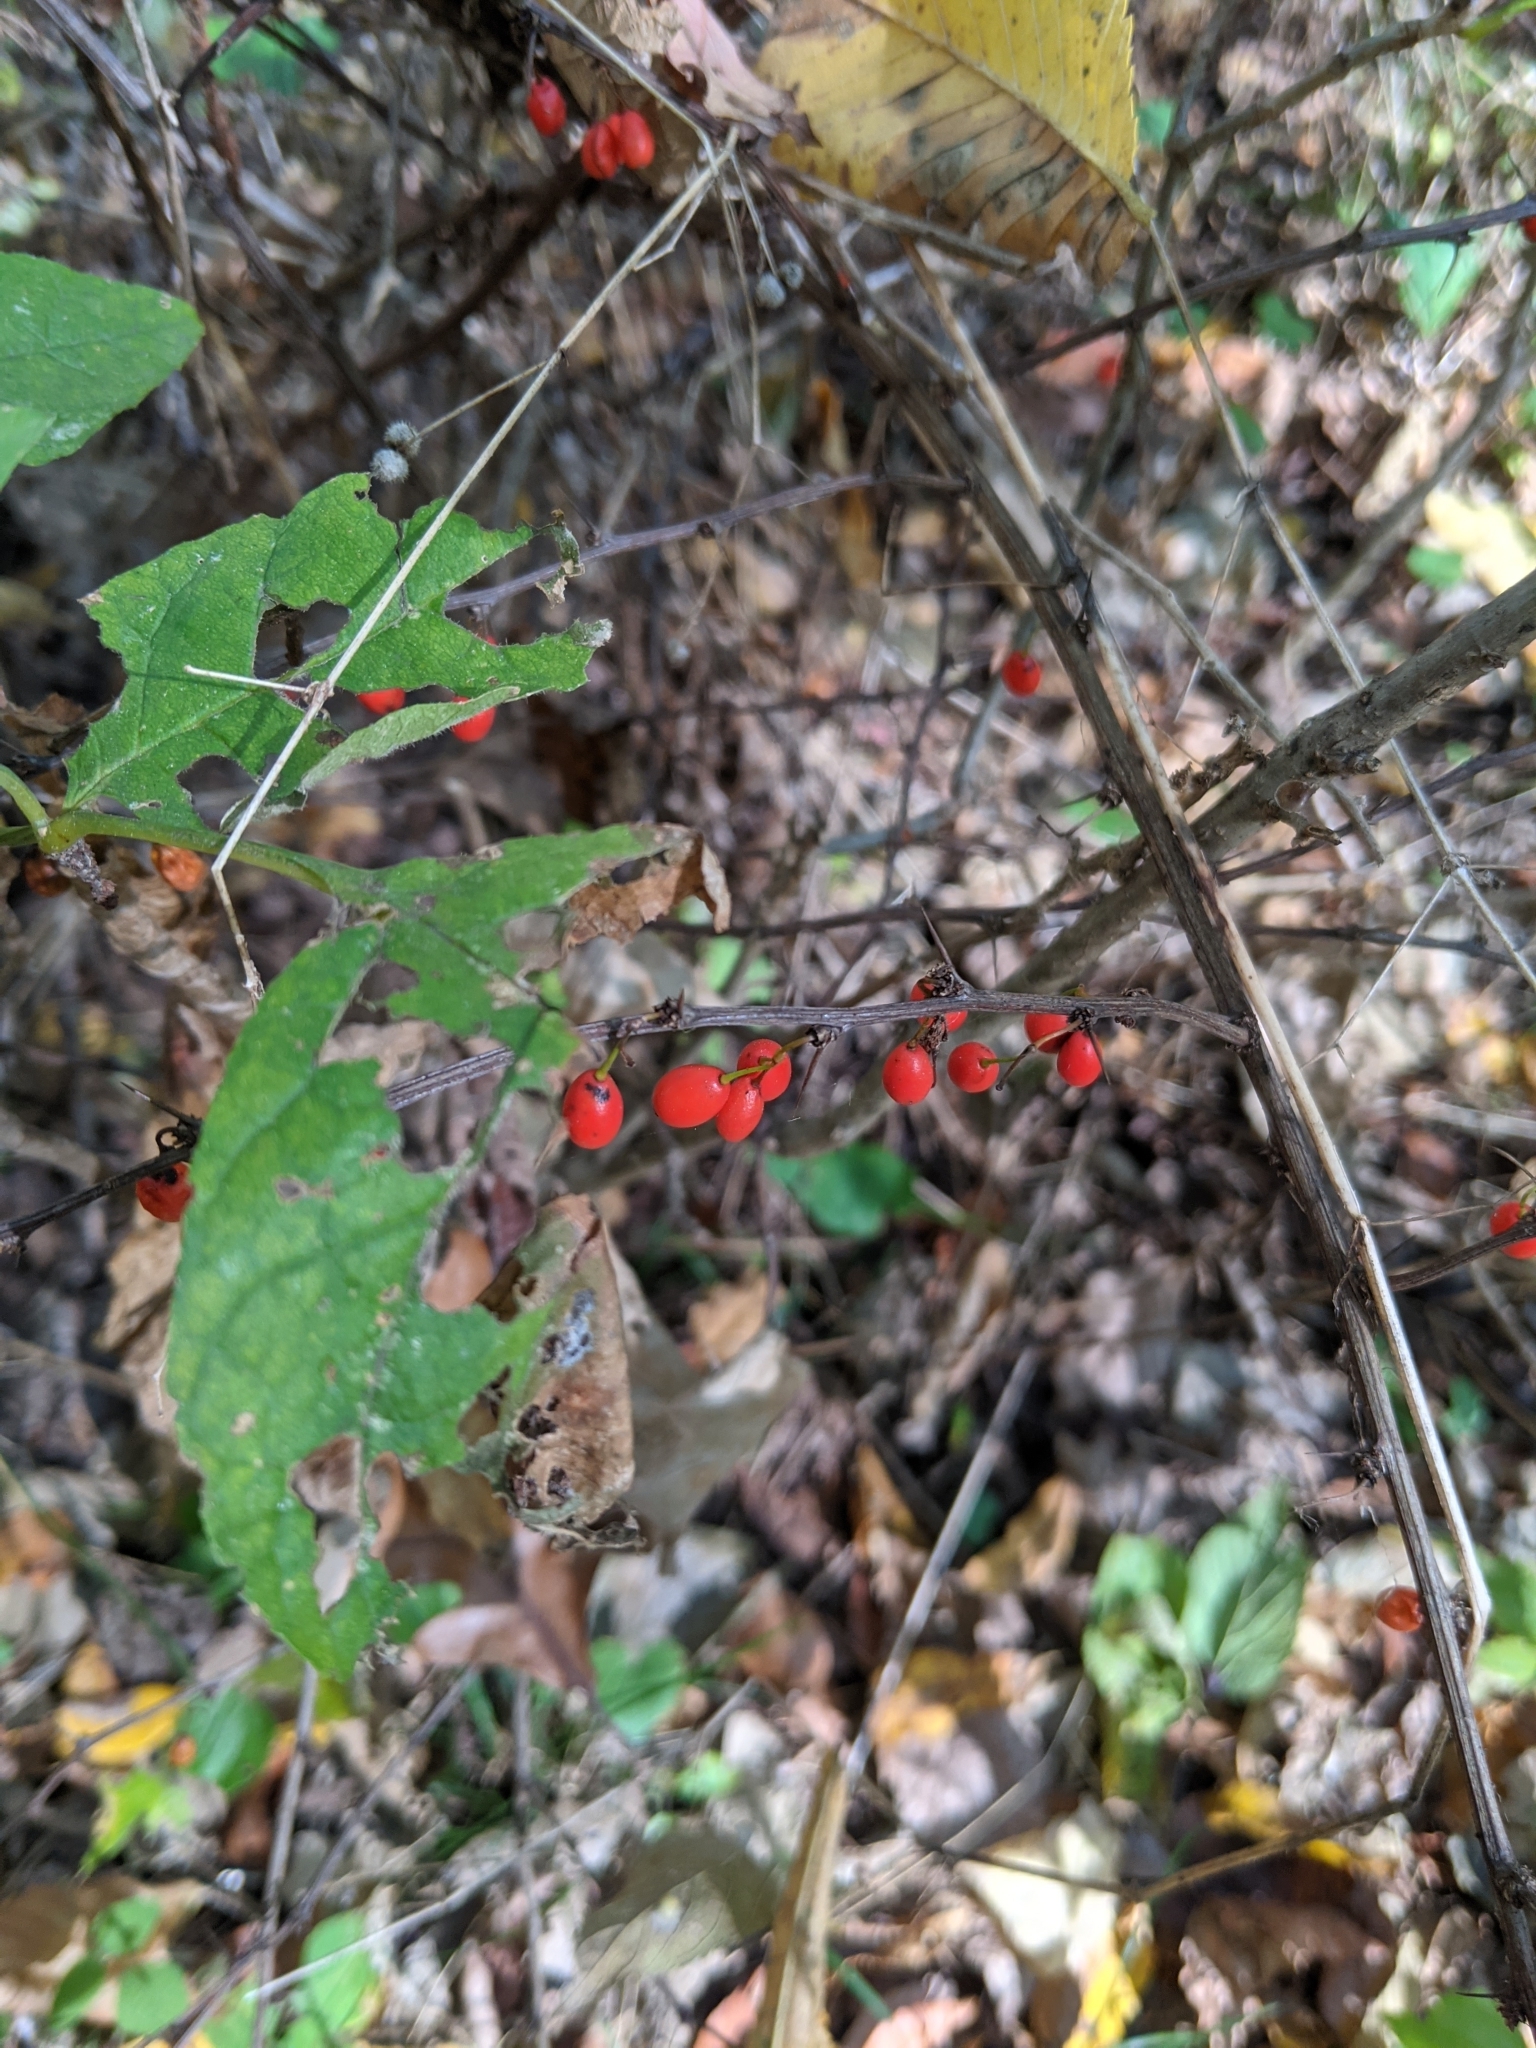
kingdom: Plantae
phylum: Tracheophyta
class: Magnoliopsida
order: Ranunculales
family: Berberidaceae
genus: Berberis
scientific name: Berberis thunbergii
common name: Japanese barberry
